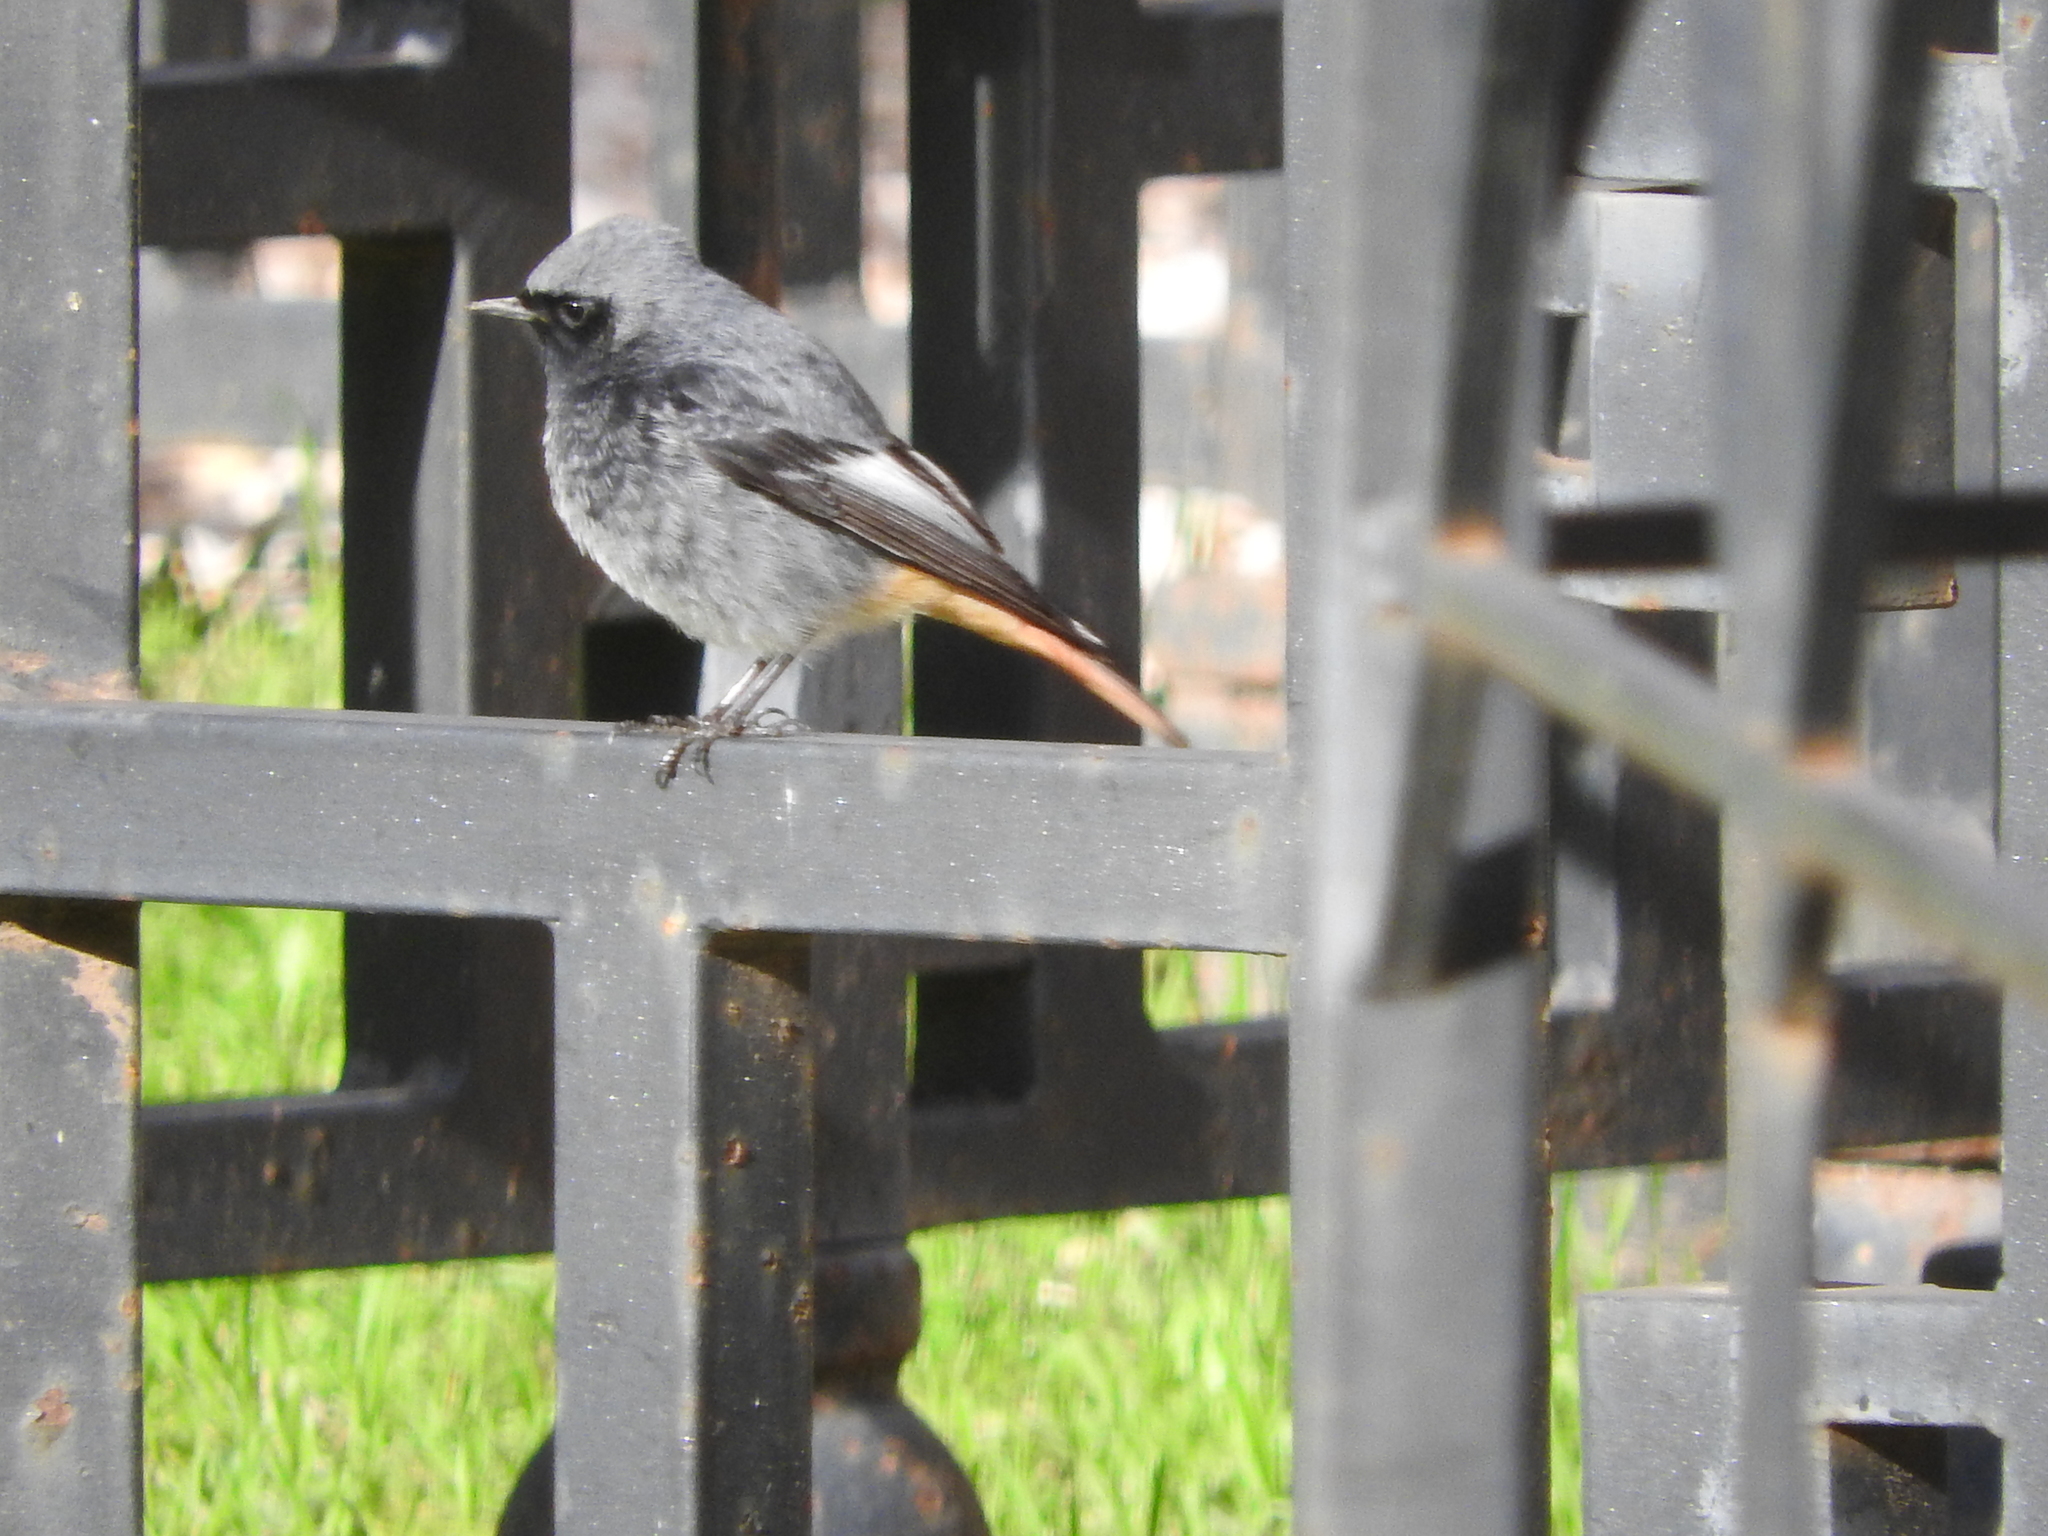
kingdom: Animalia
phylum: Chordata
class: Aves
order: Passeriformes
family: Muscicapidae
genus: Phoenicurus
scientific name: Phoenicurus ochruros
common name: Black redstart
